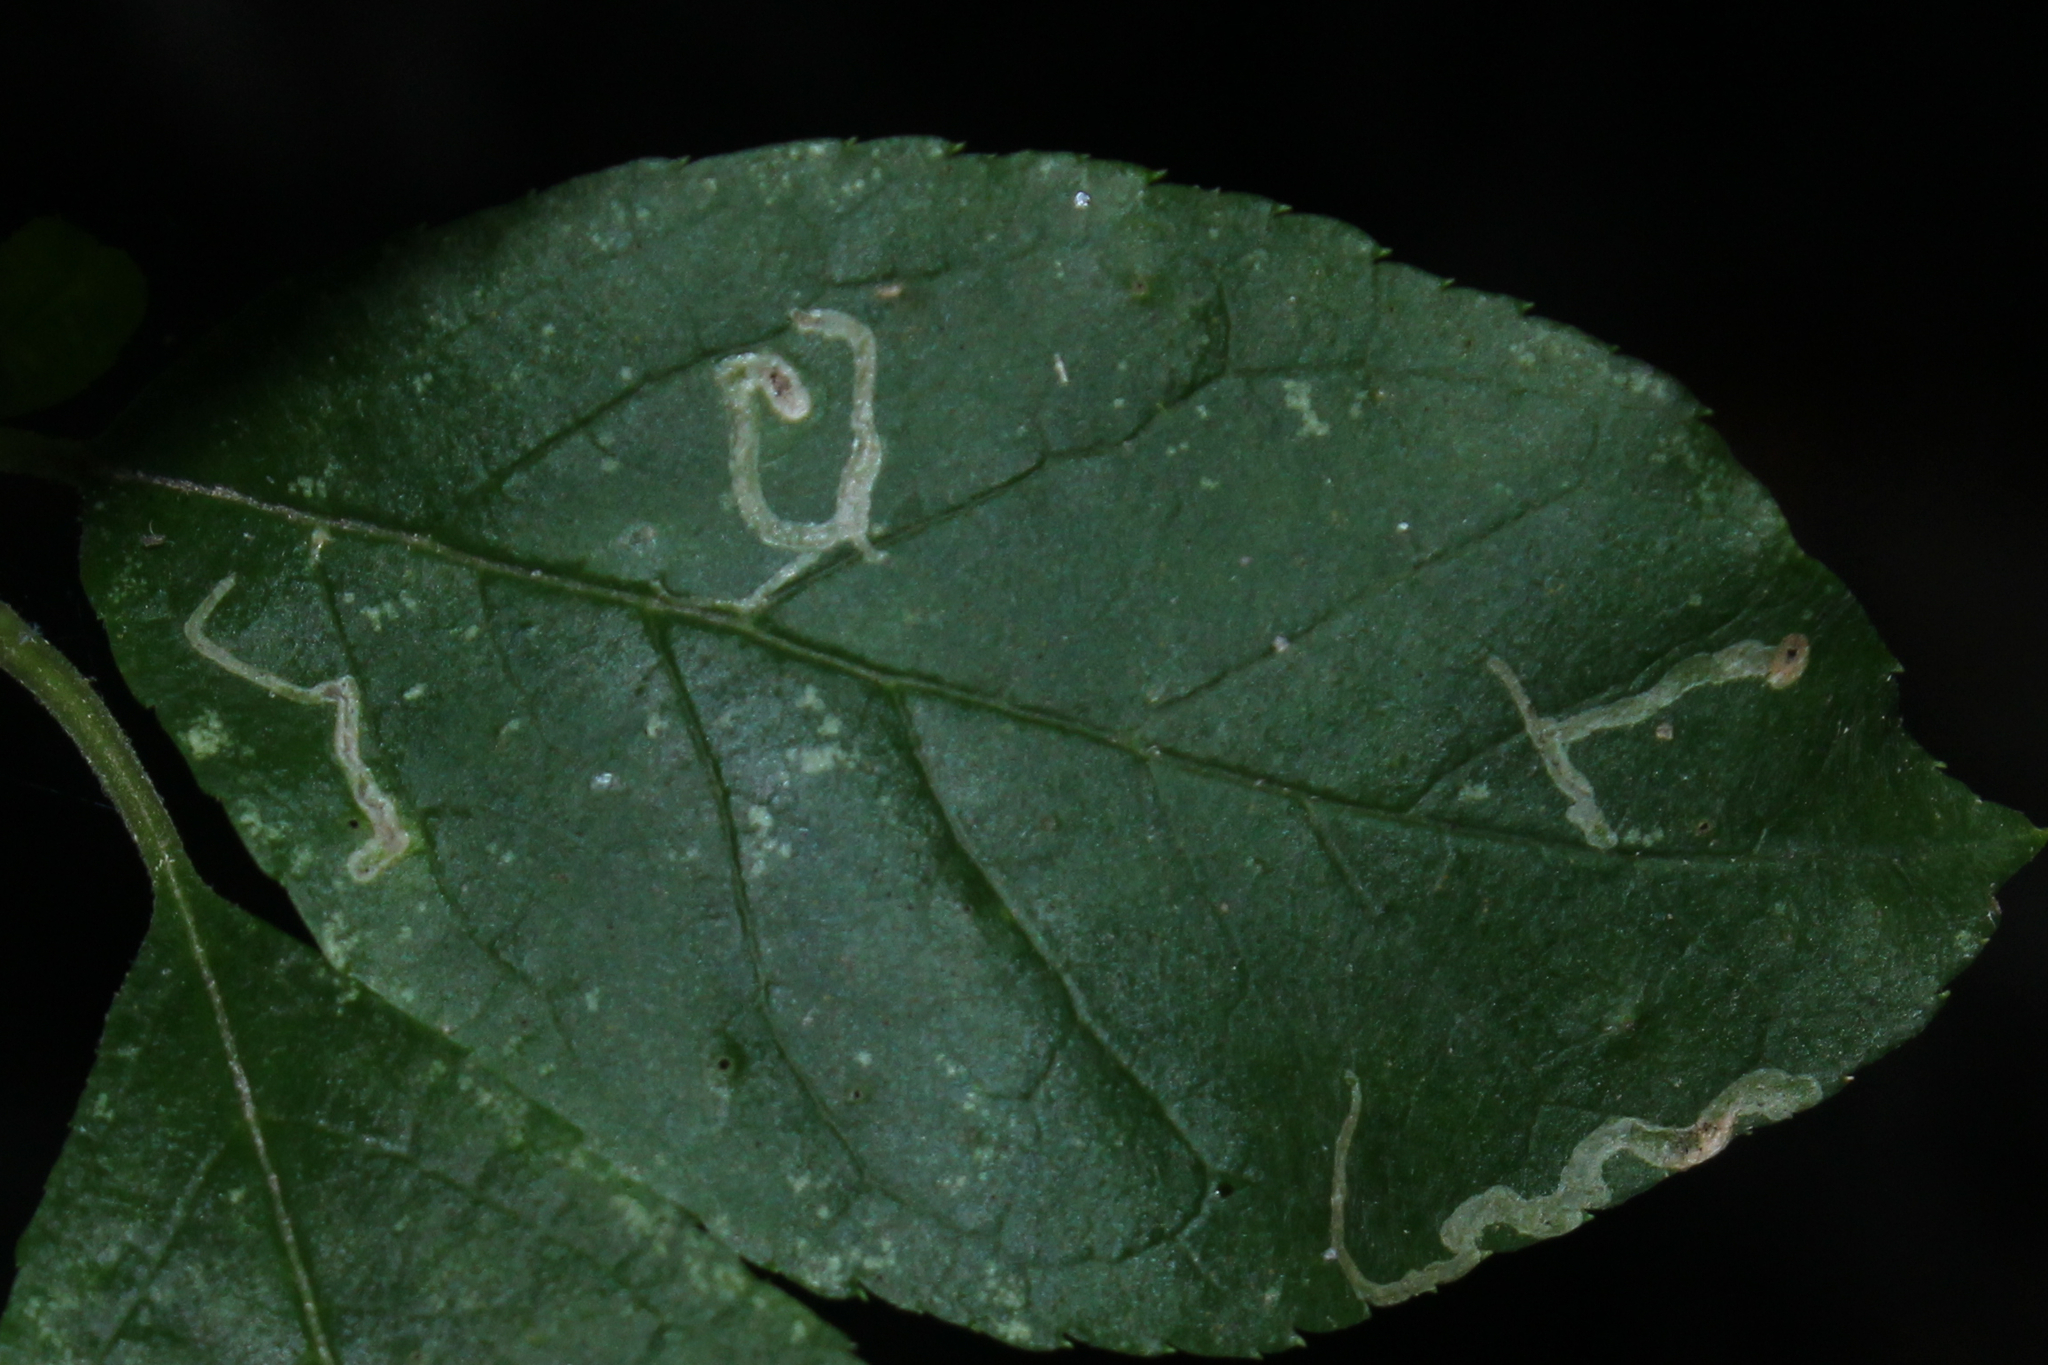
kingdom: Animalia
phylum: Arthropoda
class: Insecta
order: Diptera
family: Agromyzidae
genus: Phytomyza
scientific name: Phytomyza
